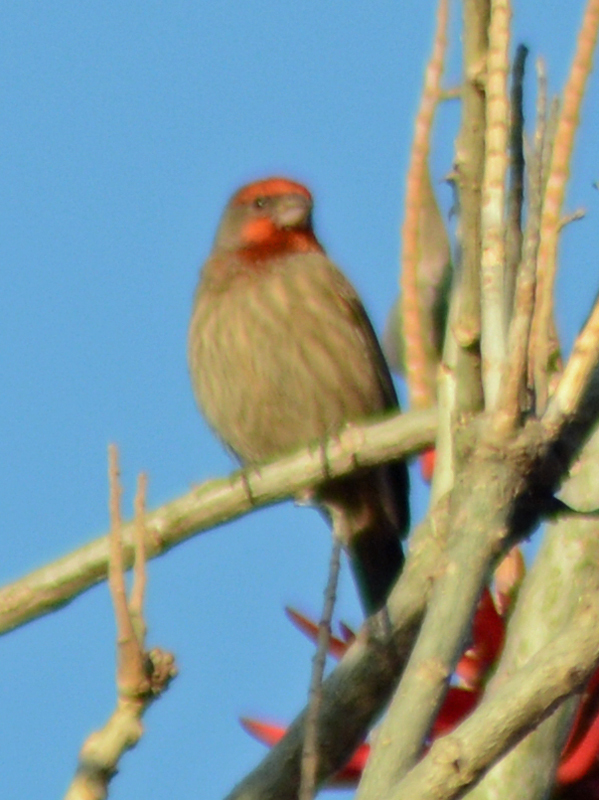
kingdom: Animalia
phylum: Chordata
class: Aves
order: Passeriformes
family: Fringillidae
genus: Haemorhous
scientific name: Haemorhous mexicanus
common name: House finch
